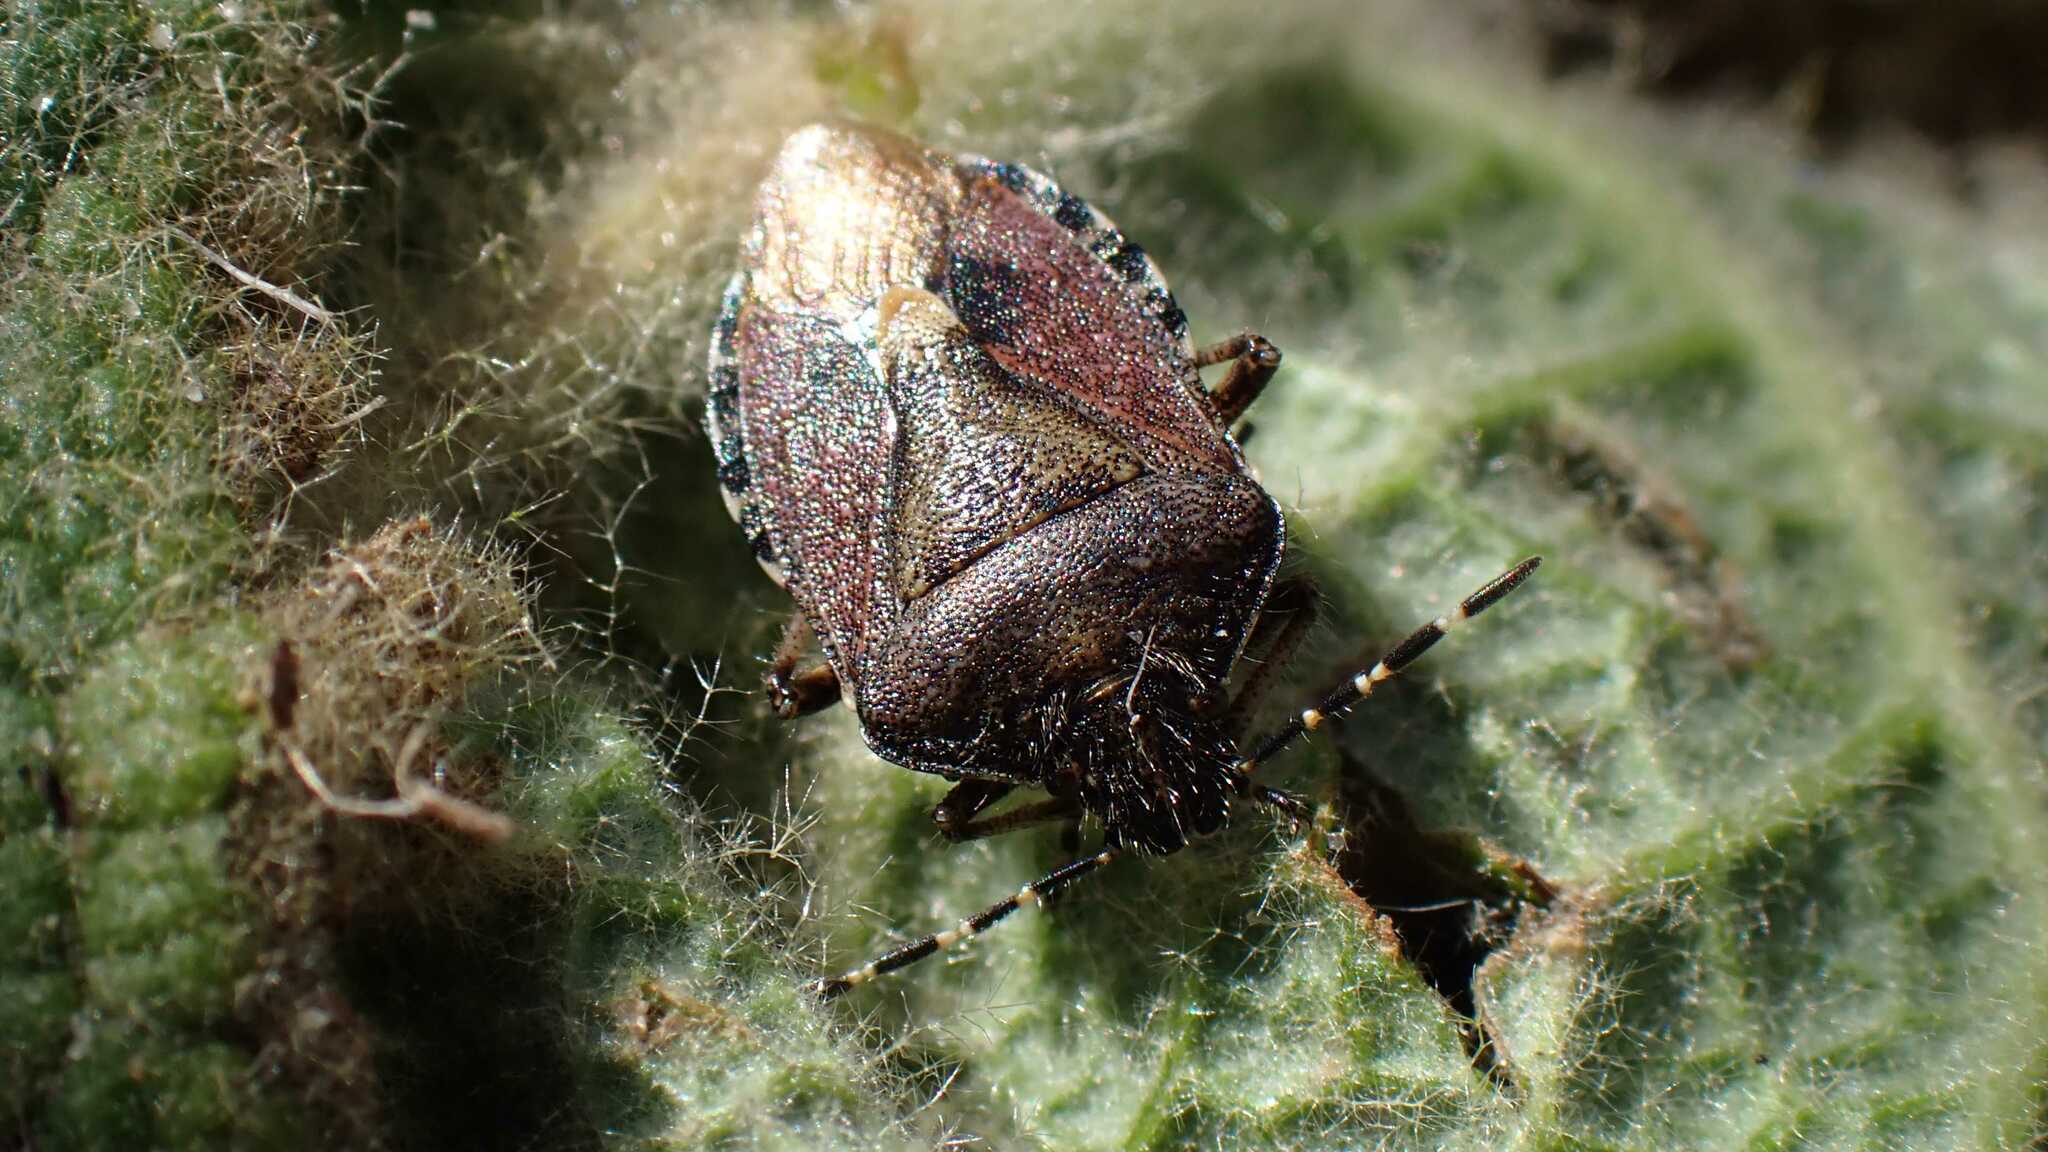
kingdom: Animalia
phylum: Arthropoda
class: Insecta
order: Hemiptera
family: Pentatomidae
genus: Dolycoris
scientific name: Dolycoris baccarum
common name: Sloe bug
